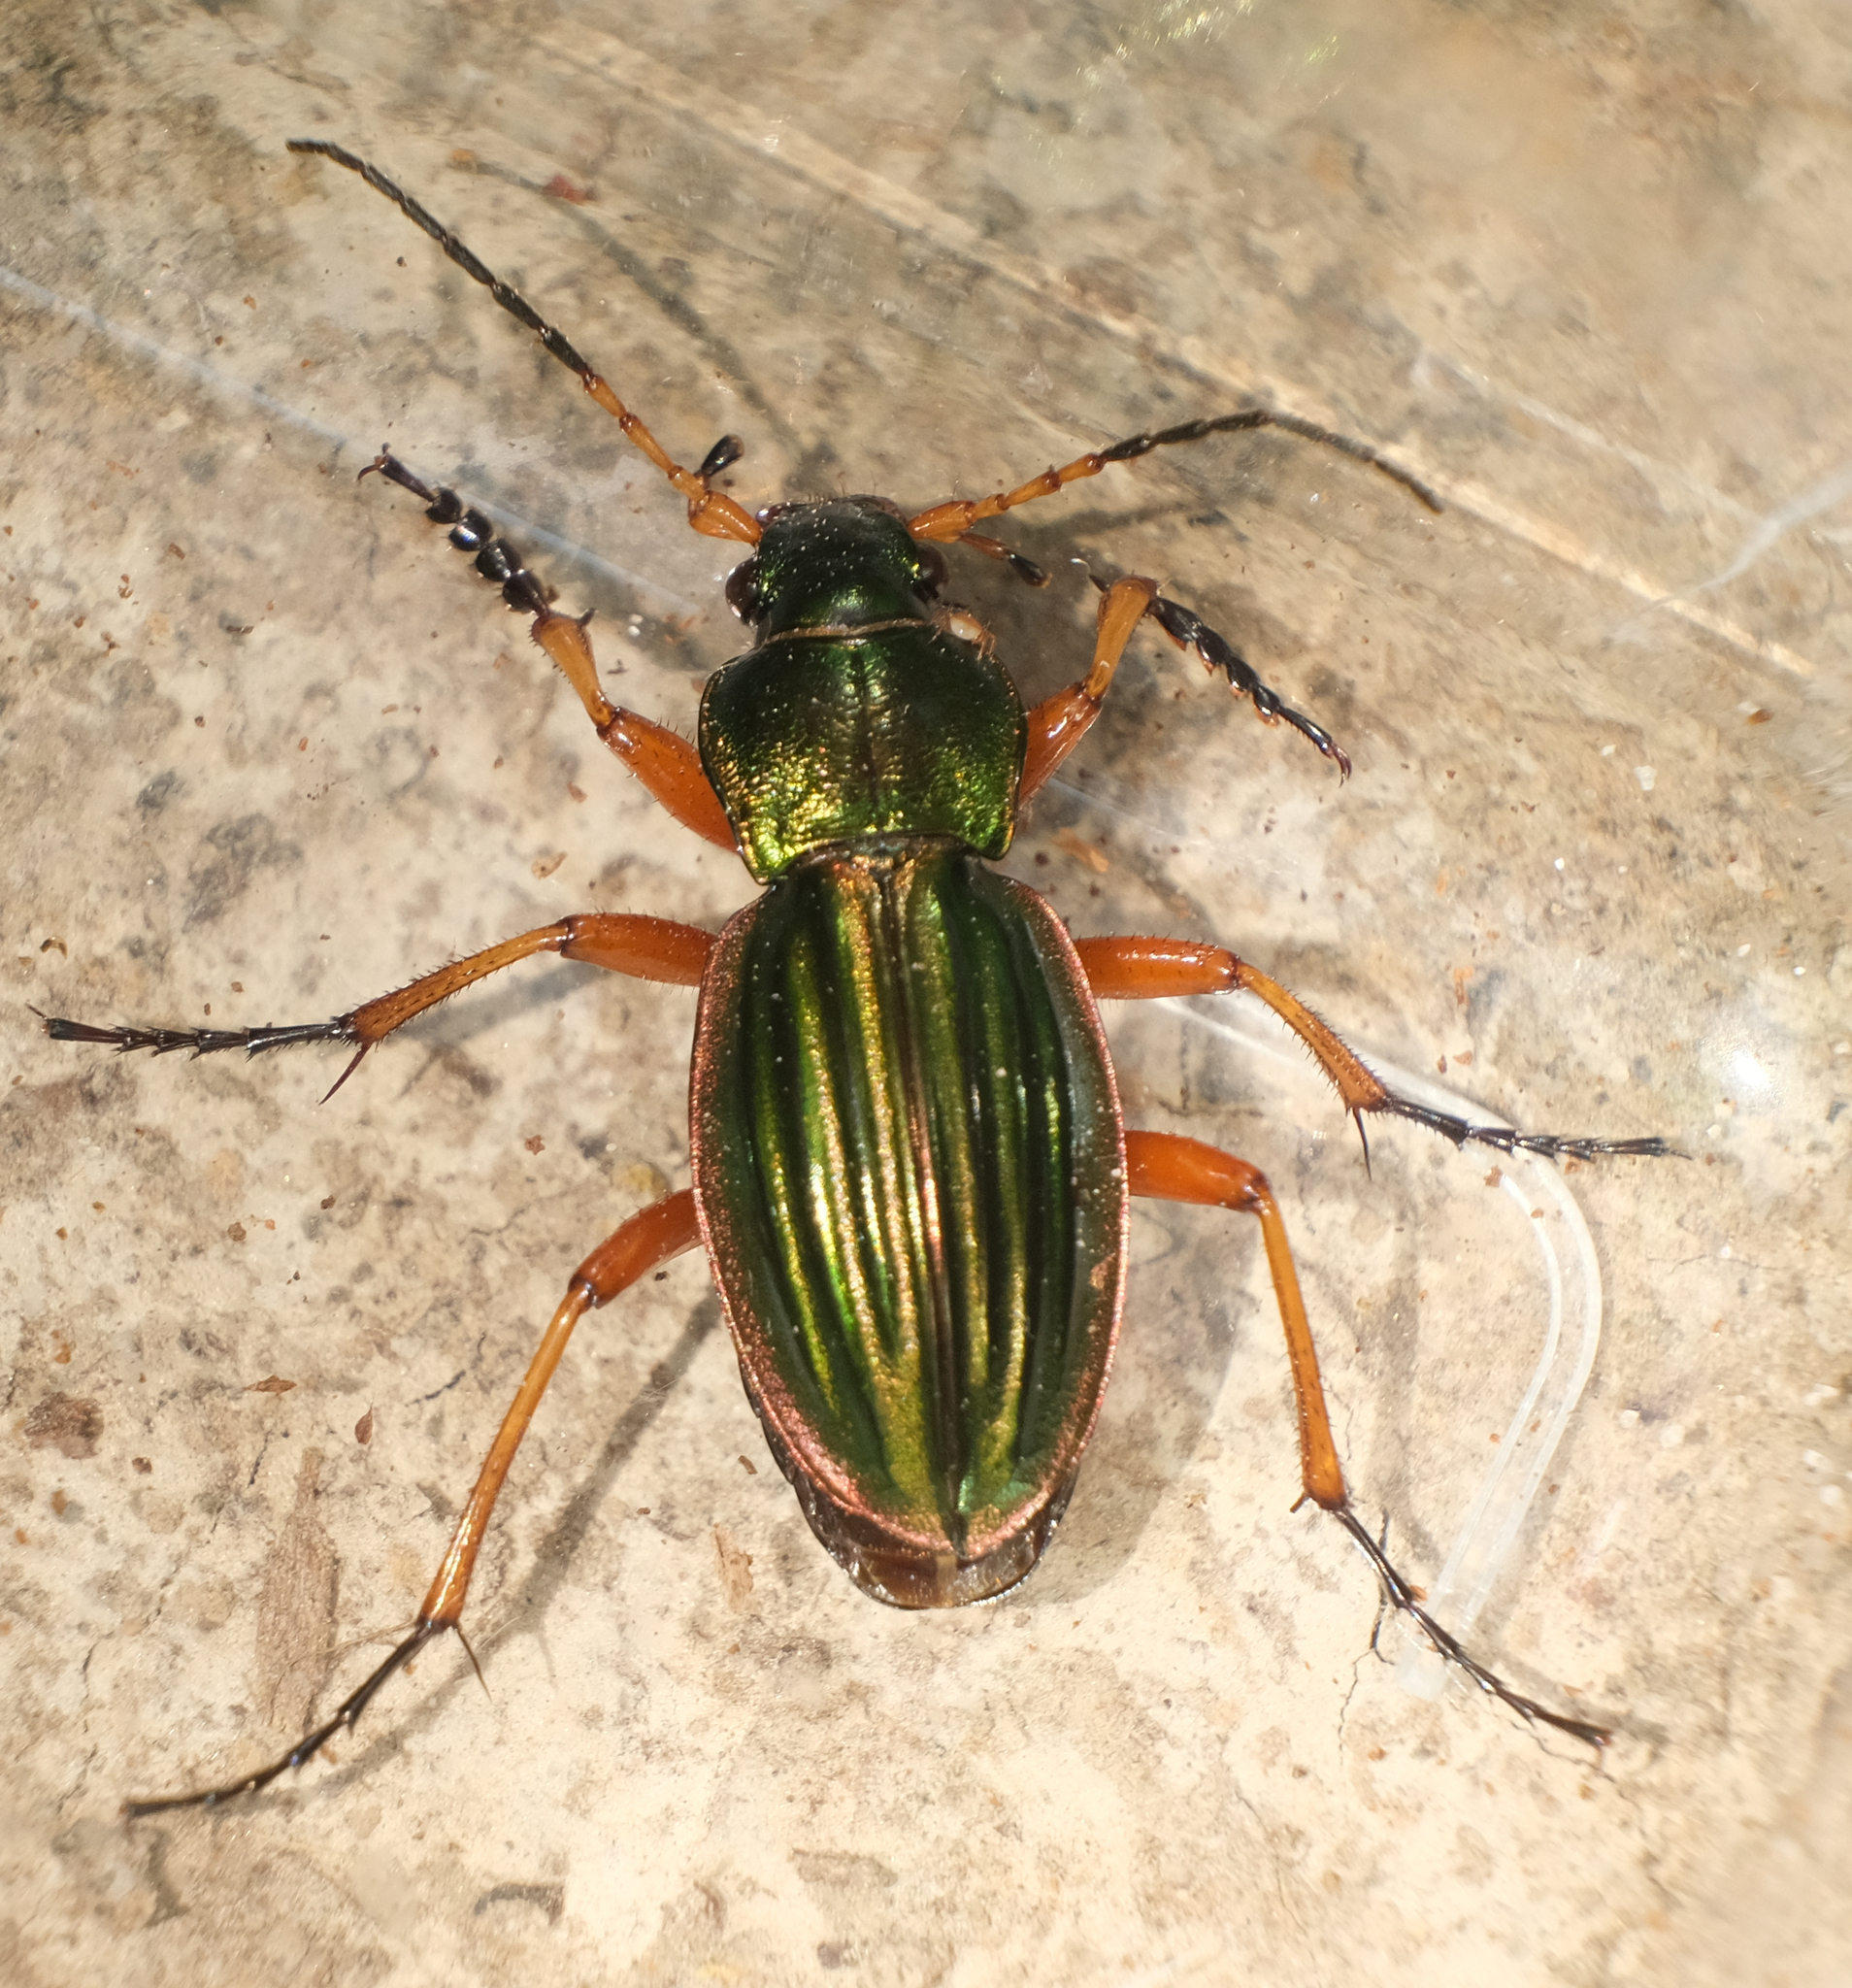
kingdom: Animalia
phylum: Arthropoda
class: Insecta
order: Coleoptera
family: Carabidae
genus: Carabus
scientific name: Carabus auratus
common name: Golden ground beetle
